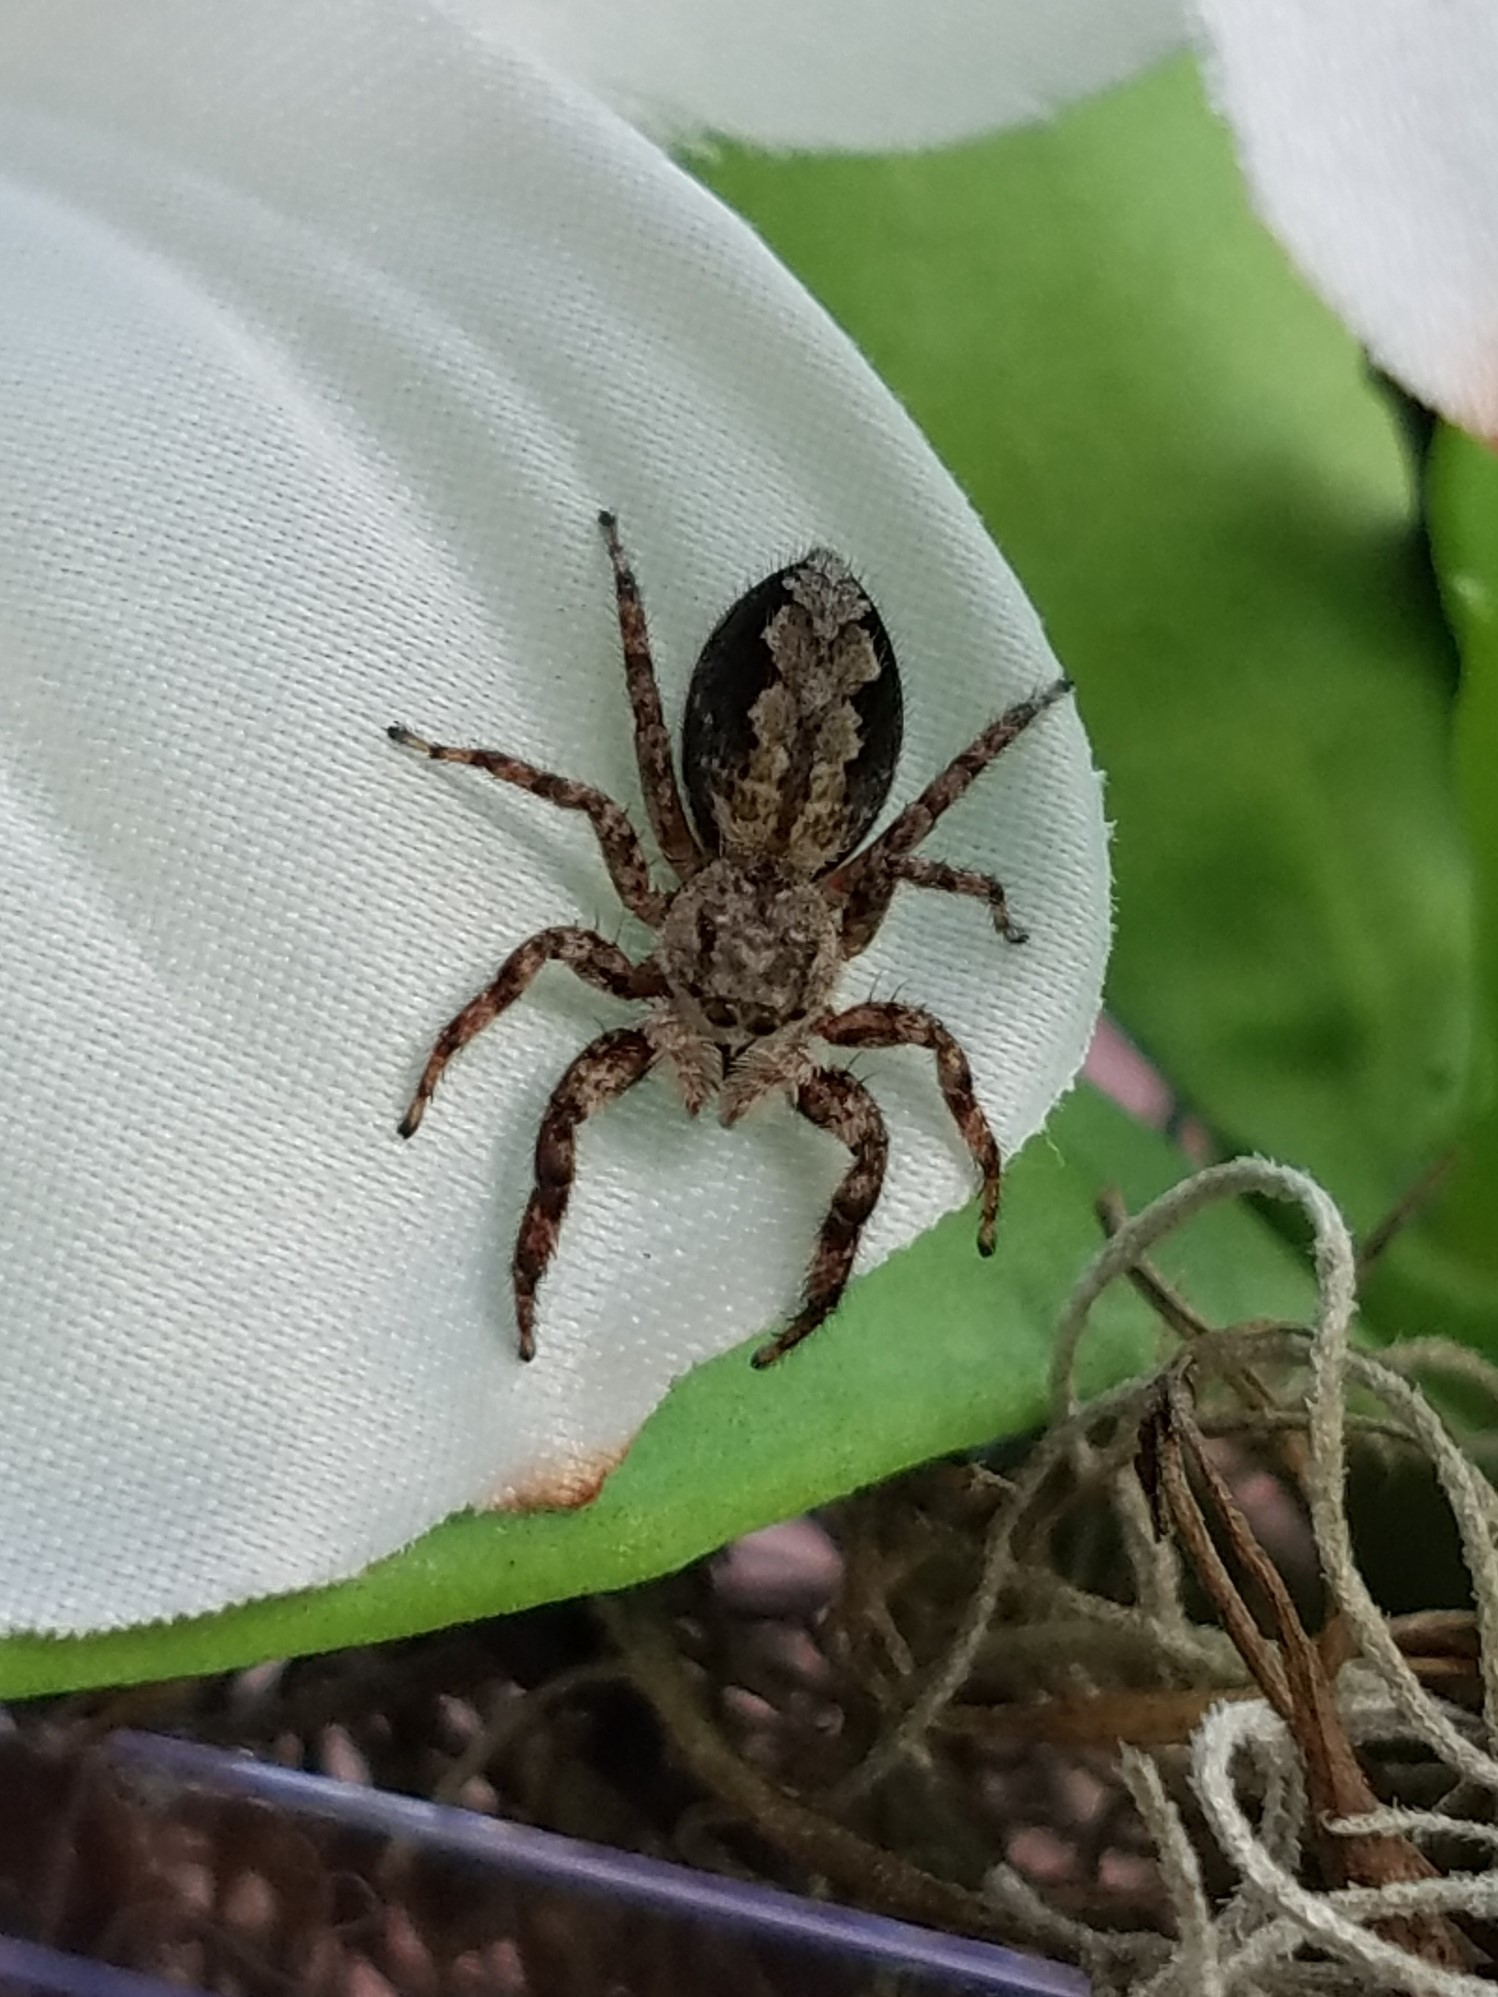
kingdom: Animalia
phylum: Arthropoda
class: Arachnida
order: Araneae
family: Salticidae
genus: Platycryptus
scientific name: Platycryptus undatus
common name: Tan jumping spider
